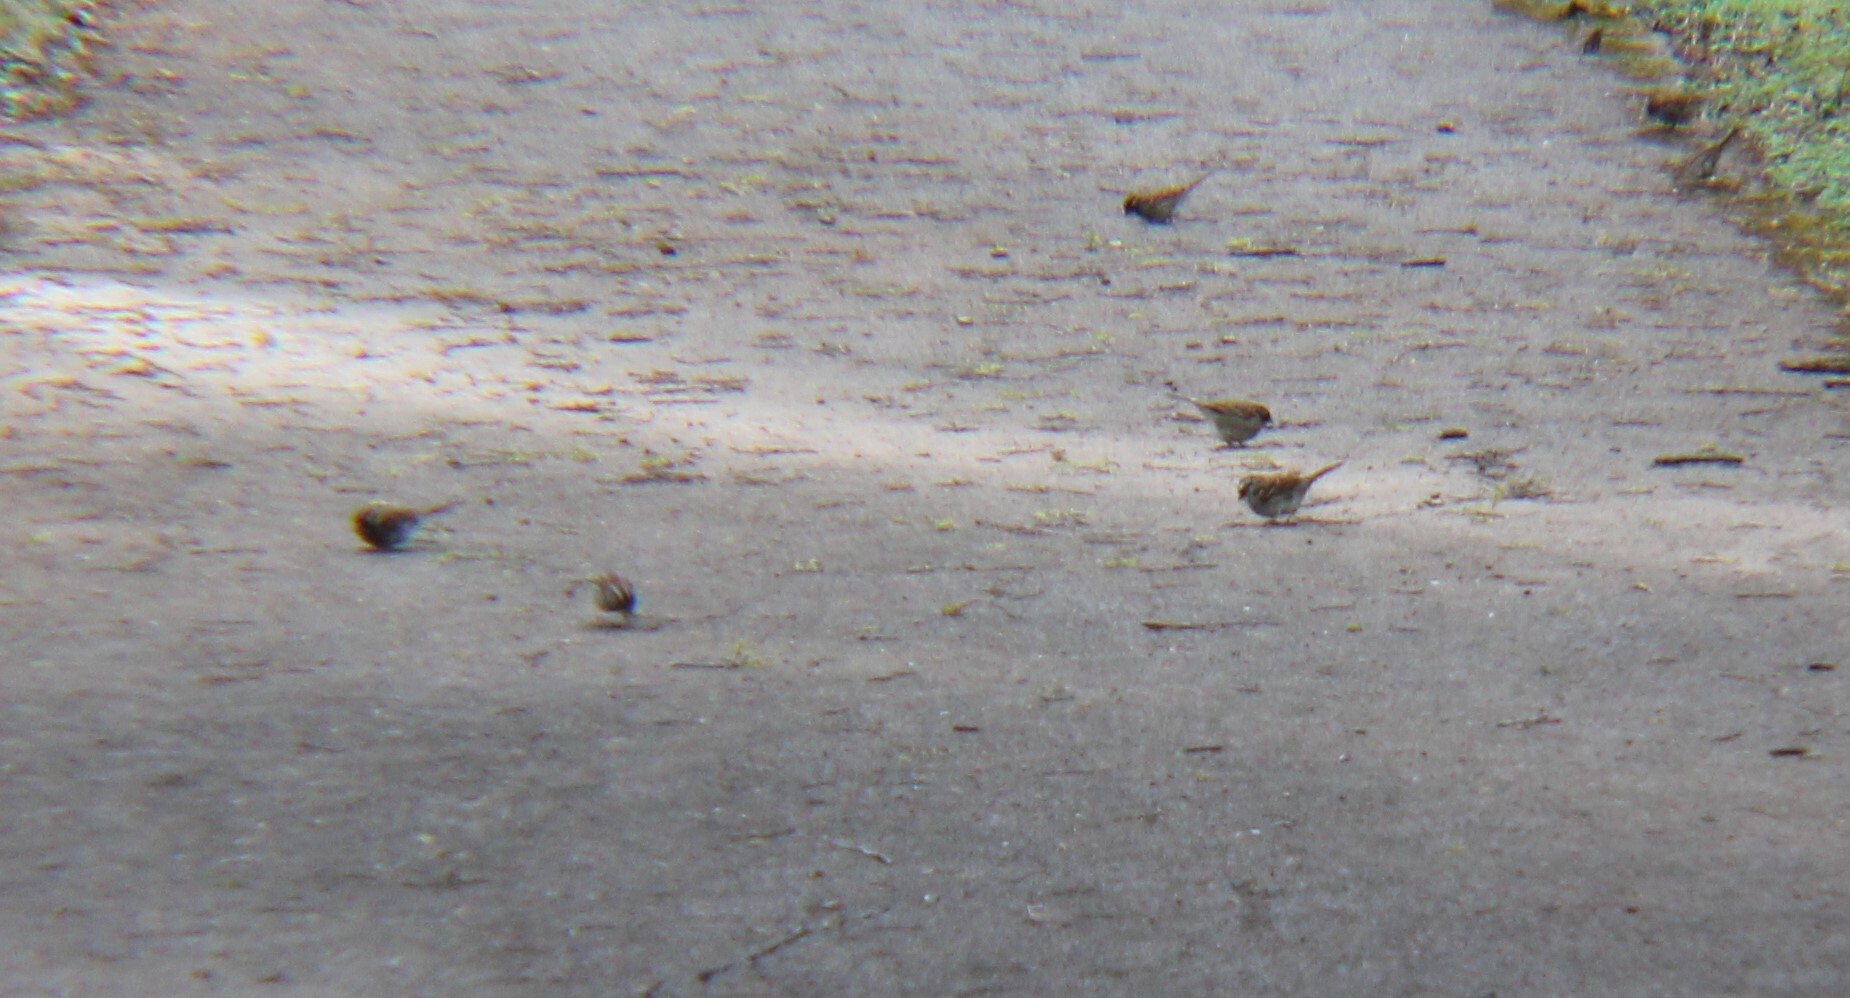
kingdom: Animalia
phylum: Chordata
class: Aves
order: Passeriformes
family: Passerellidae
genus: Zonotrichia
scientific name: Zonotrichia albicollis
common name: White-throated sparrow
